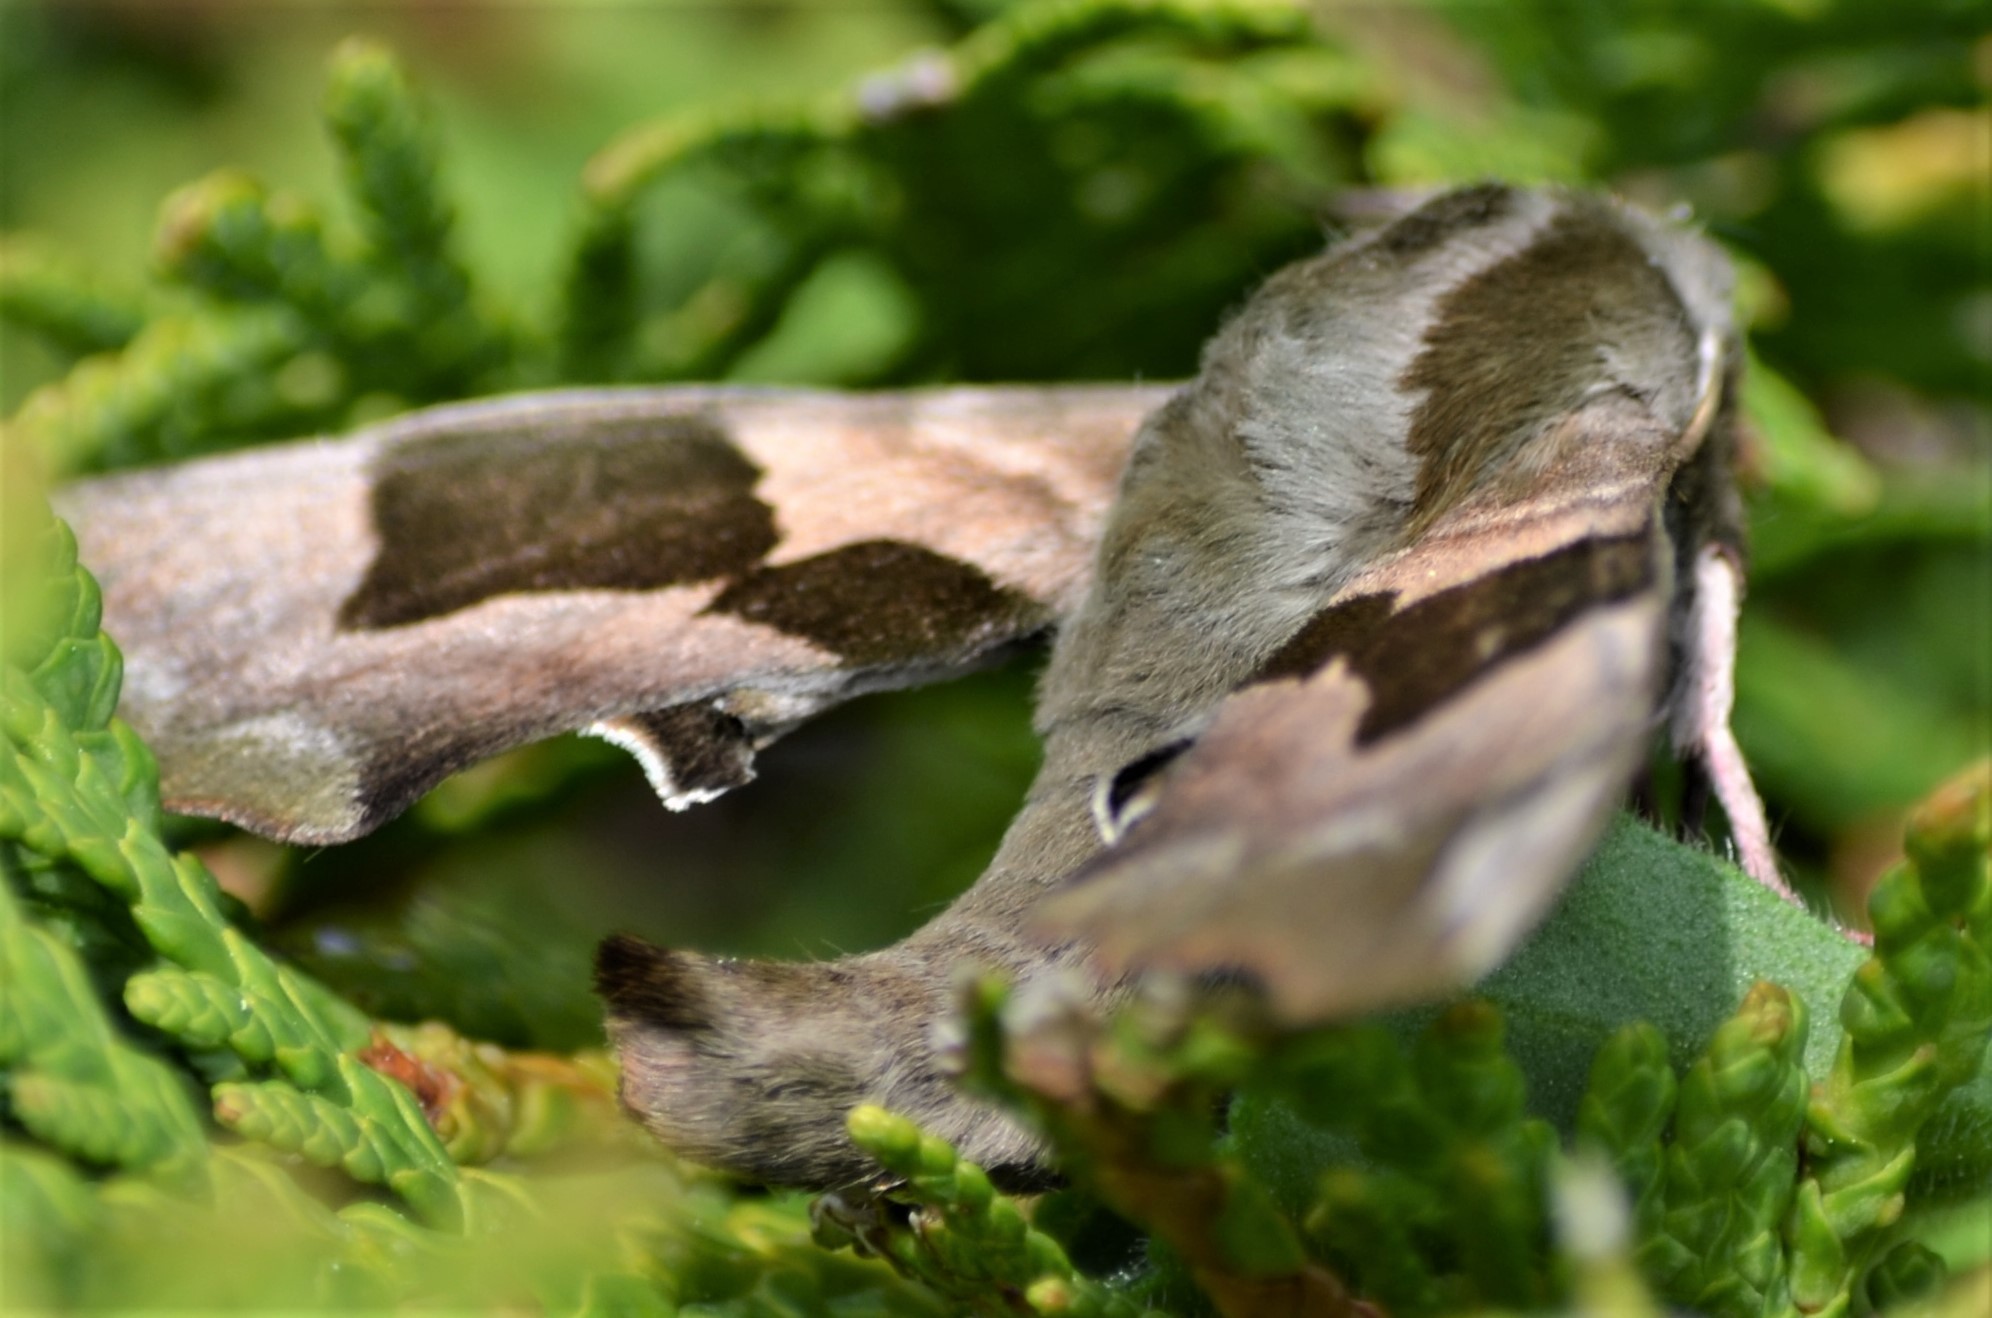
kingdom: Animalia
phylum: Arthropoda
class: Insecta
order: Lepidoptera
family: Sphingidae
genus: Mimas
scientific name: Mimas tiliae
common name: Lime hawk-moth
